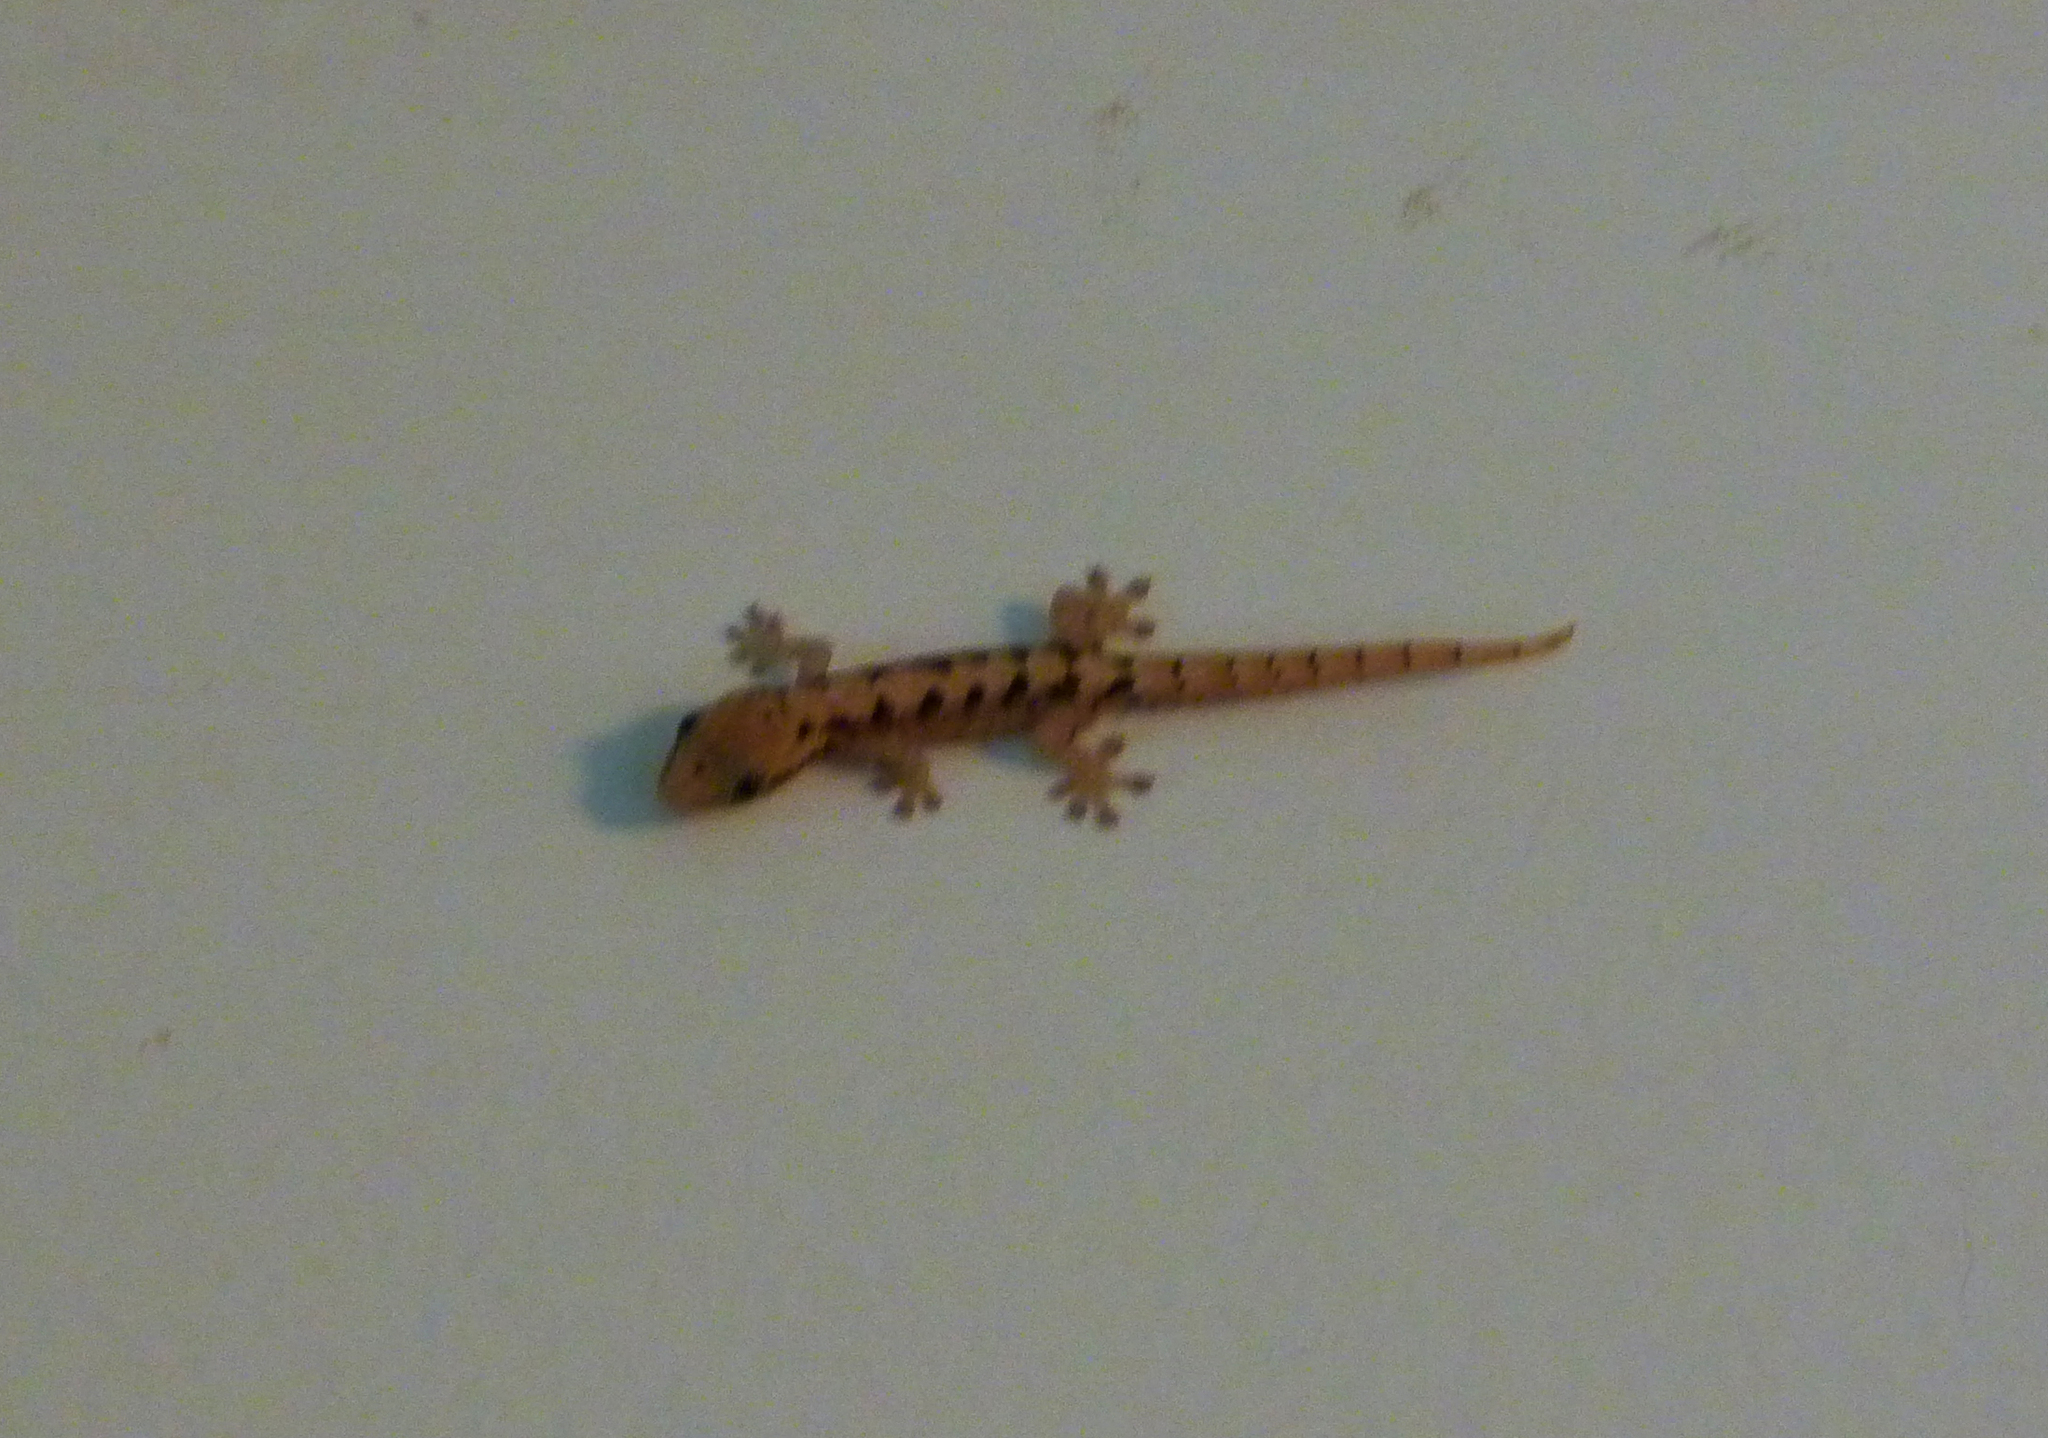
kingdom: Animalia
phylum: Chordata
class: Squamata
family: Gekkonidae
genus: Lepidodactylus
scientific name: Lepidodactylus lugubris
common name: Mourning gecko
